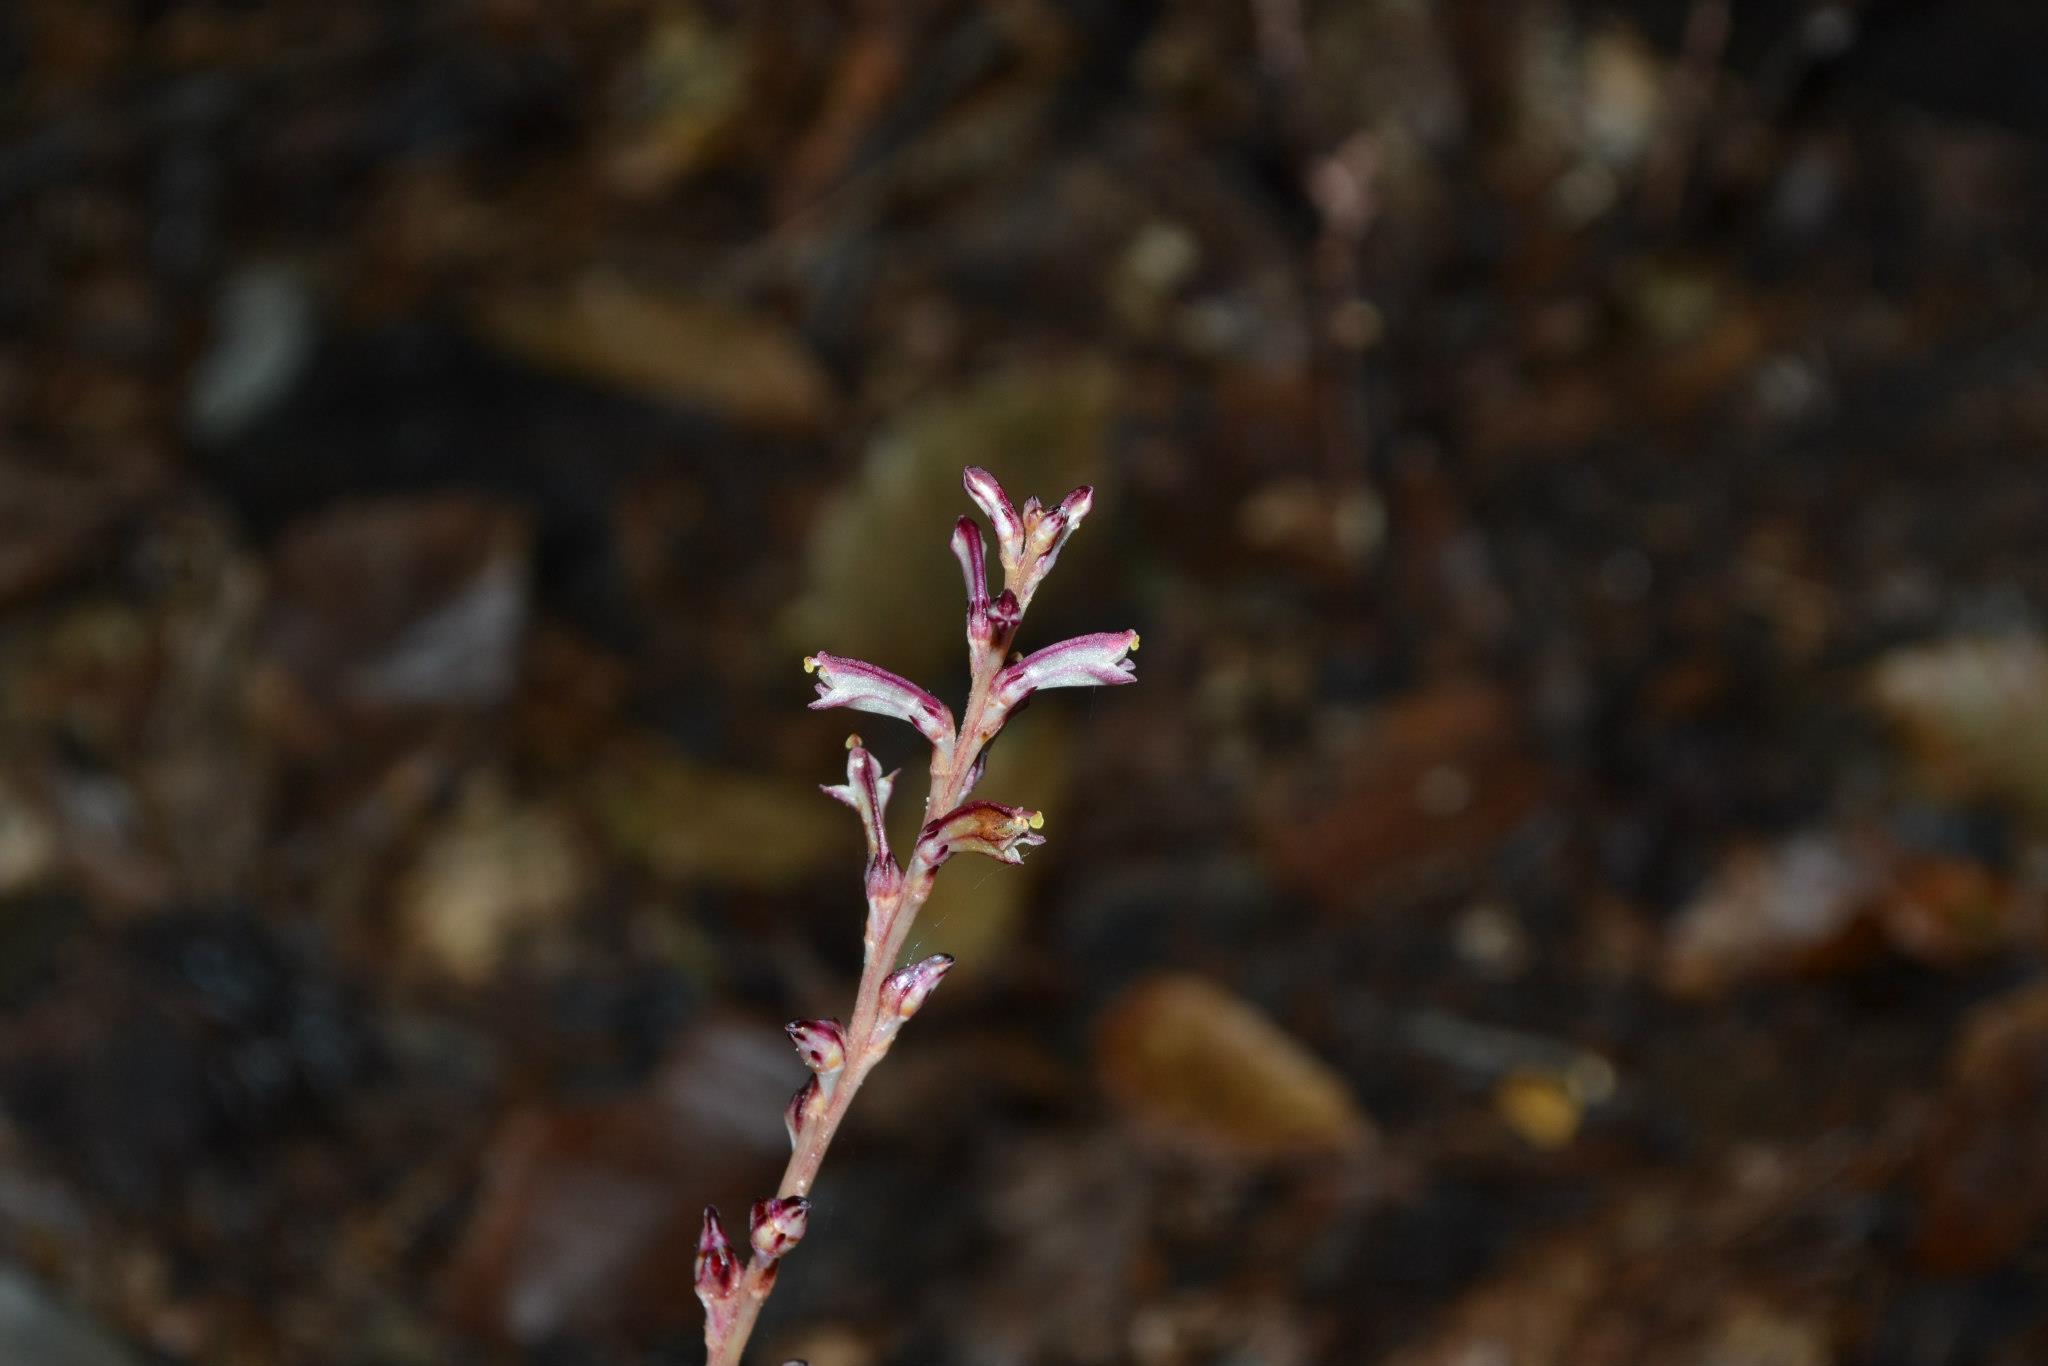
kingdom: Plantae
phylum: Tracheophyta
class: Magnoliopsida
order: Lamiales
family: Orobanchaceae
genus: Epifagus
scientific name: Epifagus virginiana
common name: Beechdrops
